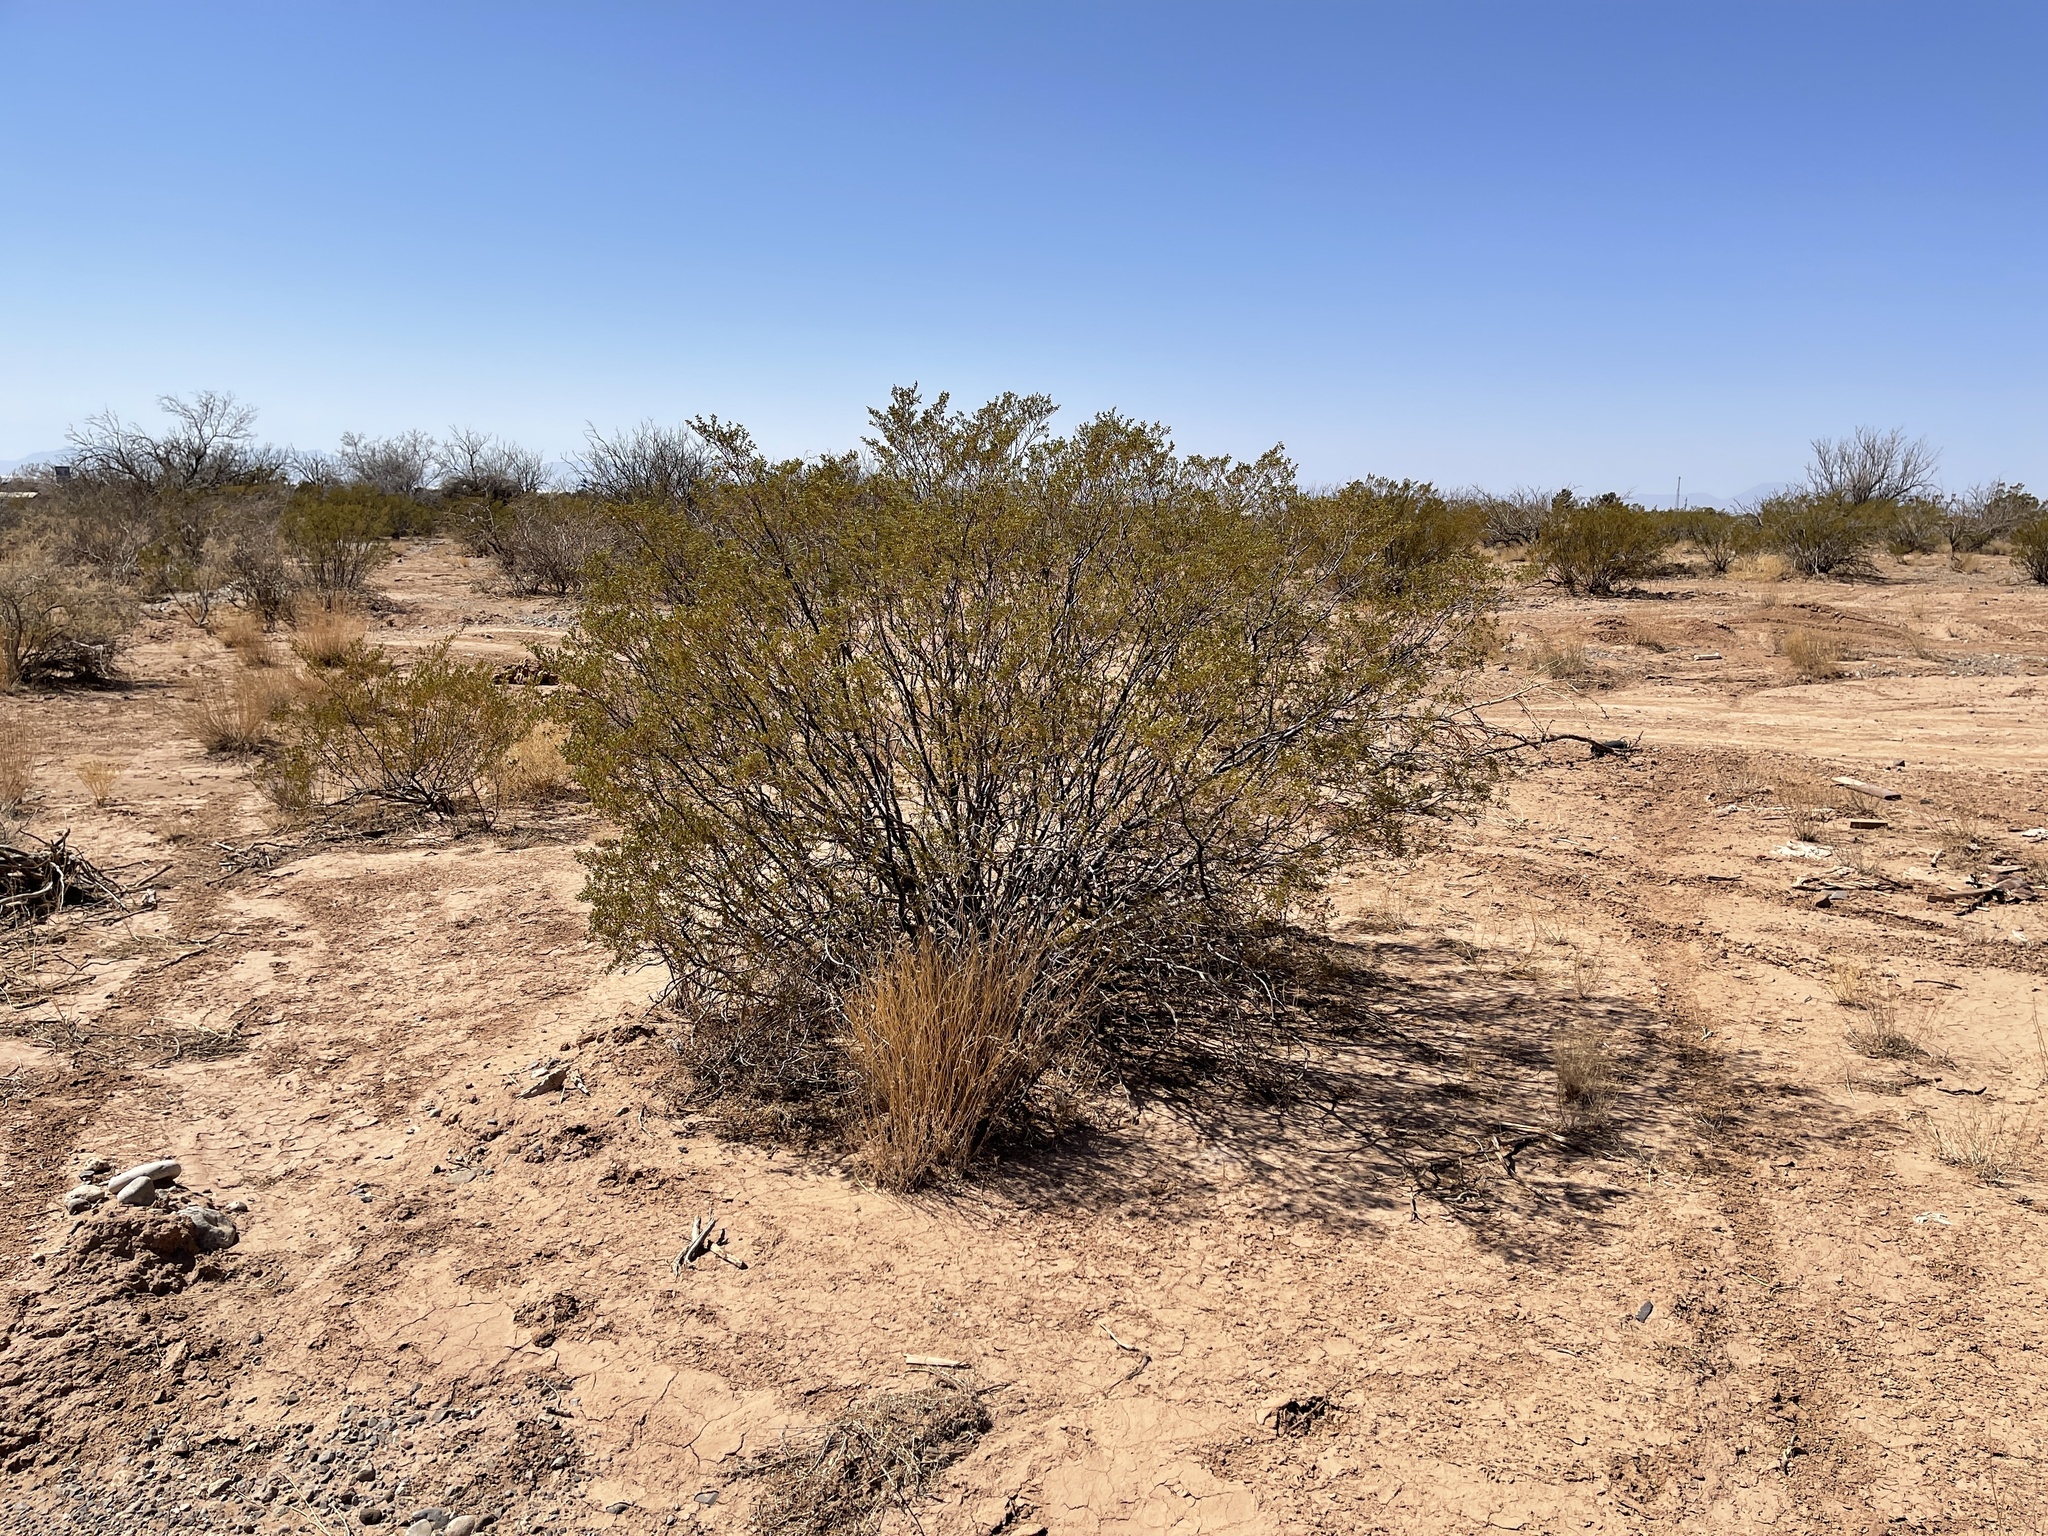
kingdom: Plantae
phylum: Tracheophyta
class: Magnoliopsida
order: Zygophyllales
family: Zygophyllaceae
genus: Larrea
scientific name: Larrea tridentata
